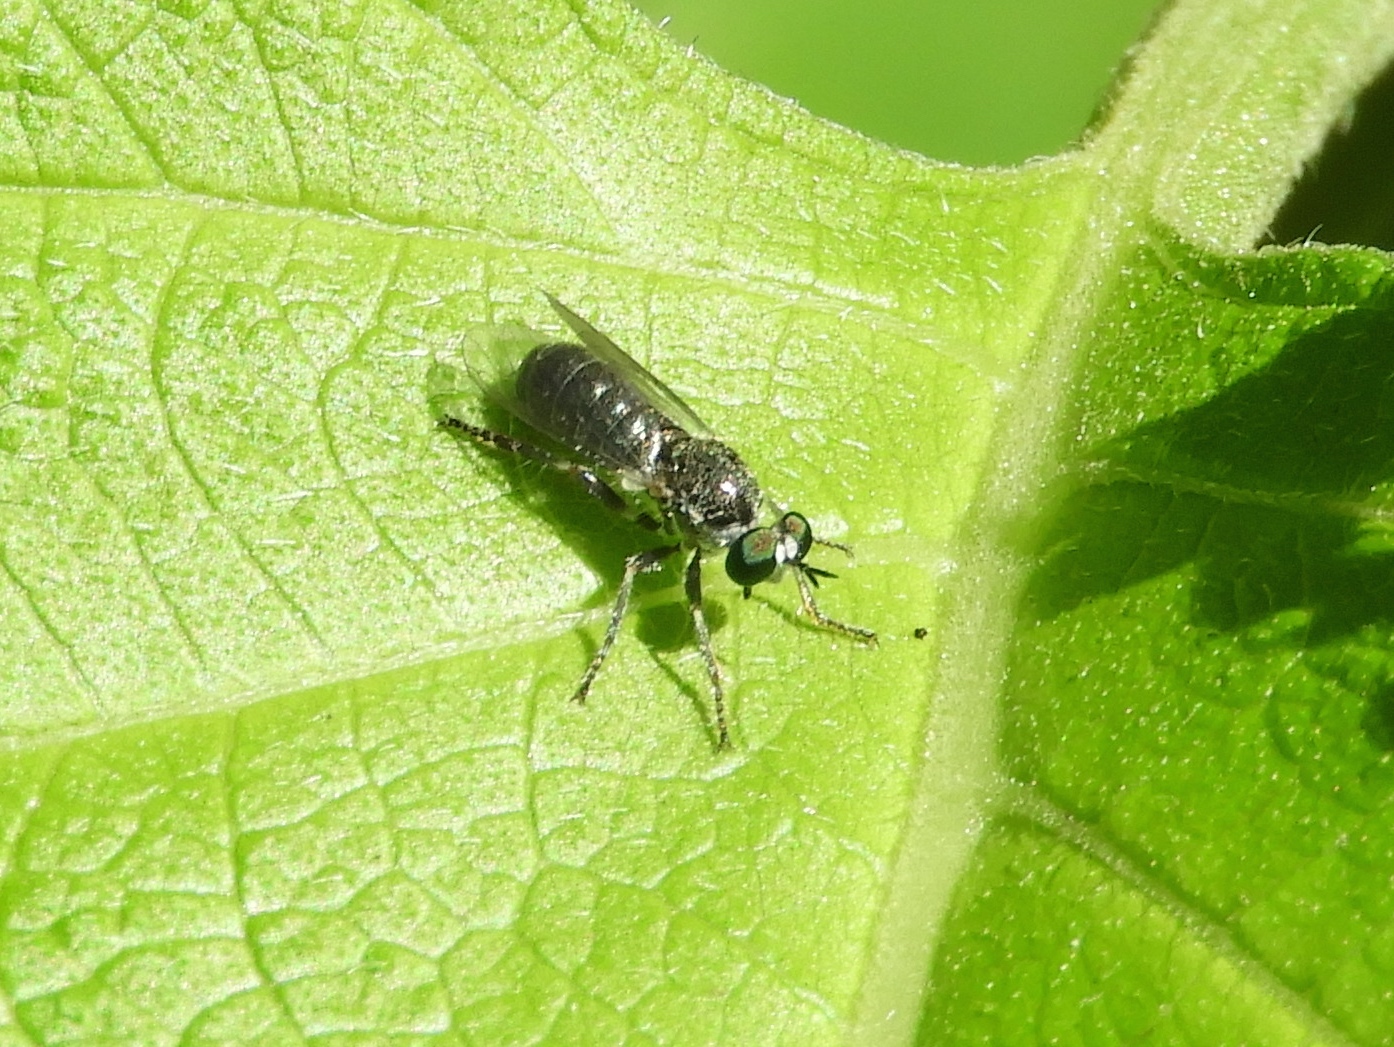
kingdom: Animalia
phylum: Arthropoda
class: Insecta
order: Diptera
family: Asilidae
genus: Atomosia
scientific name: Atomosia
